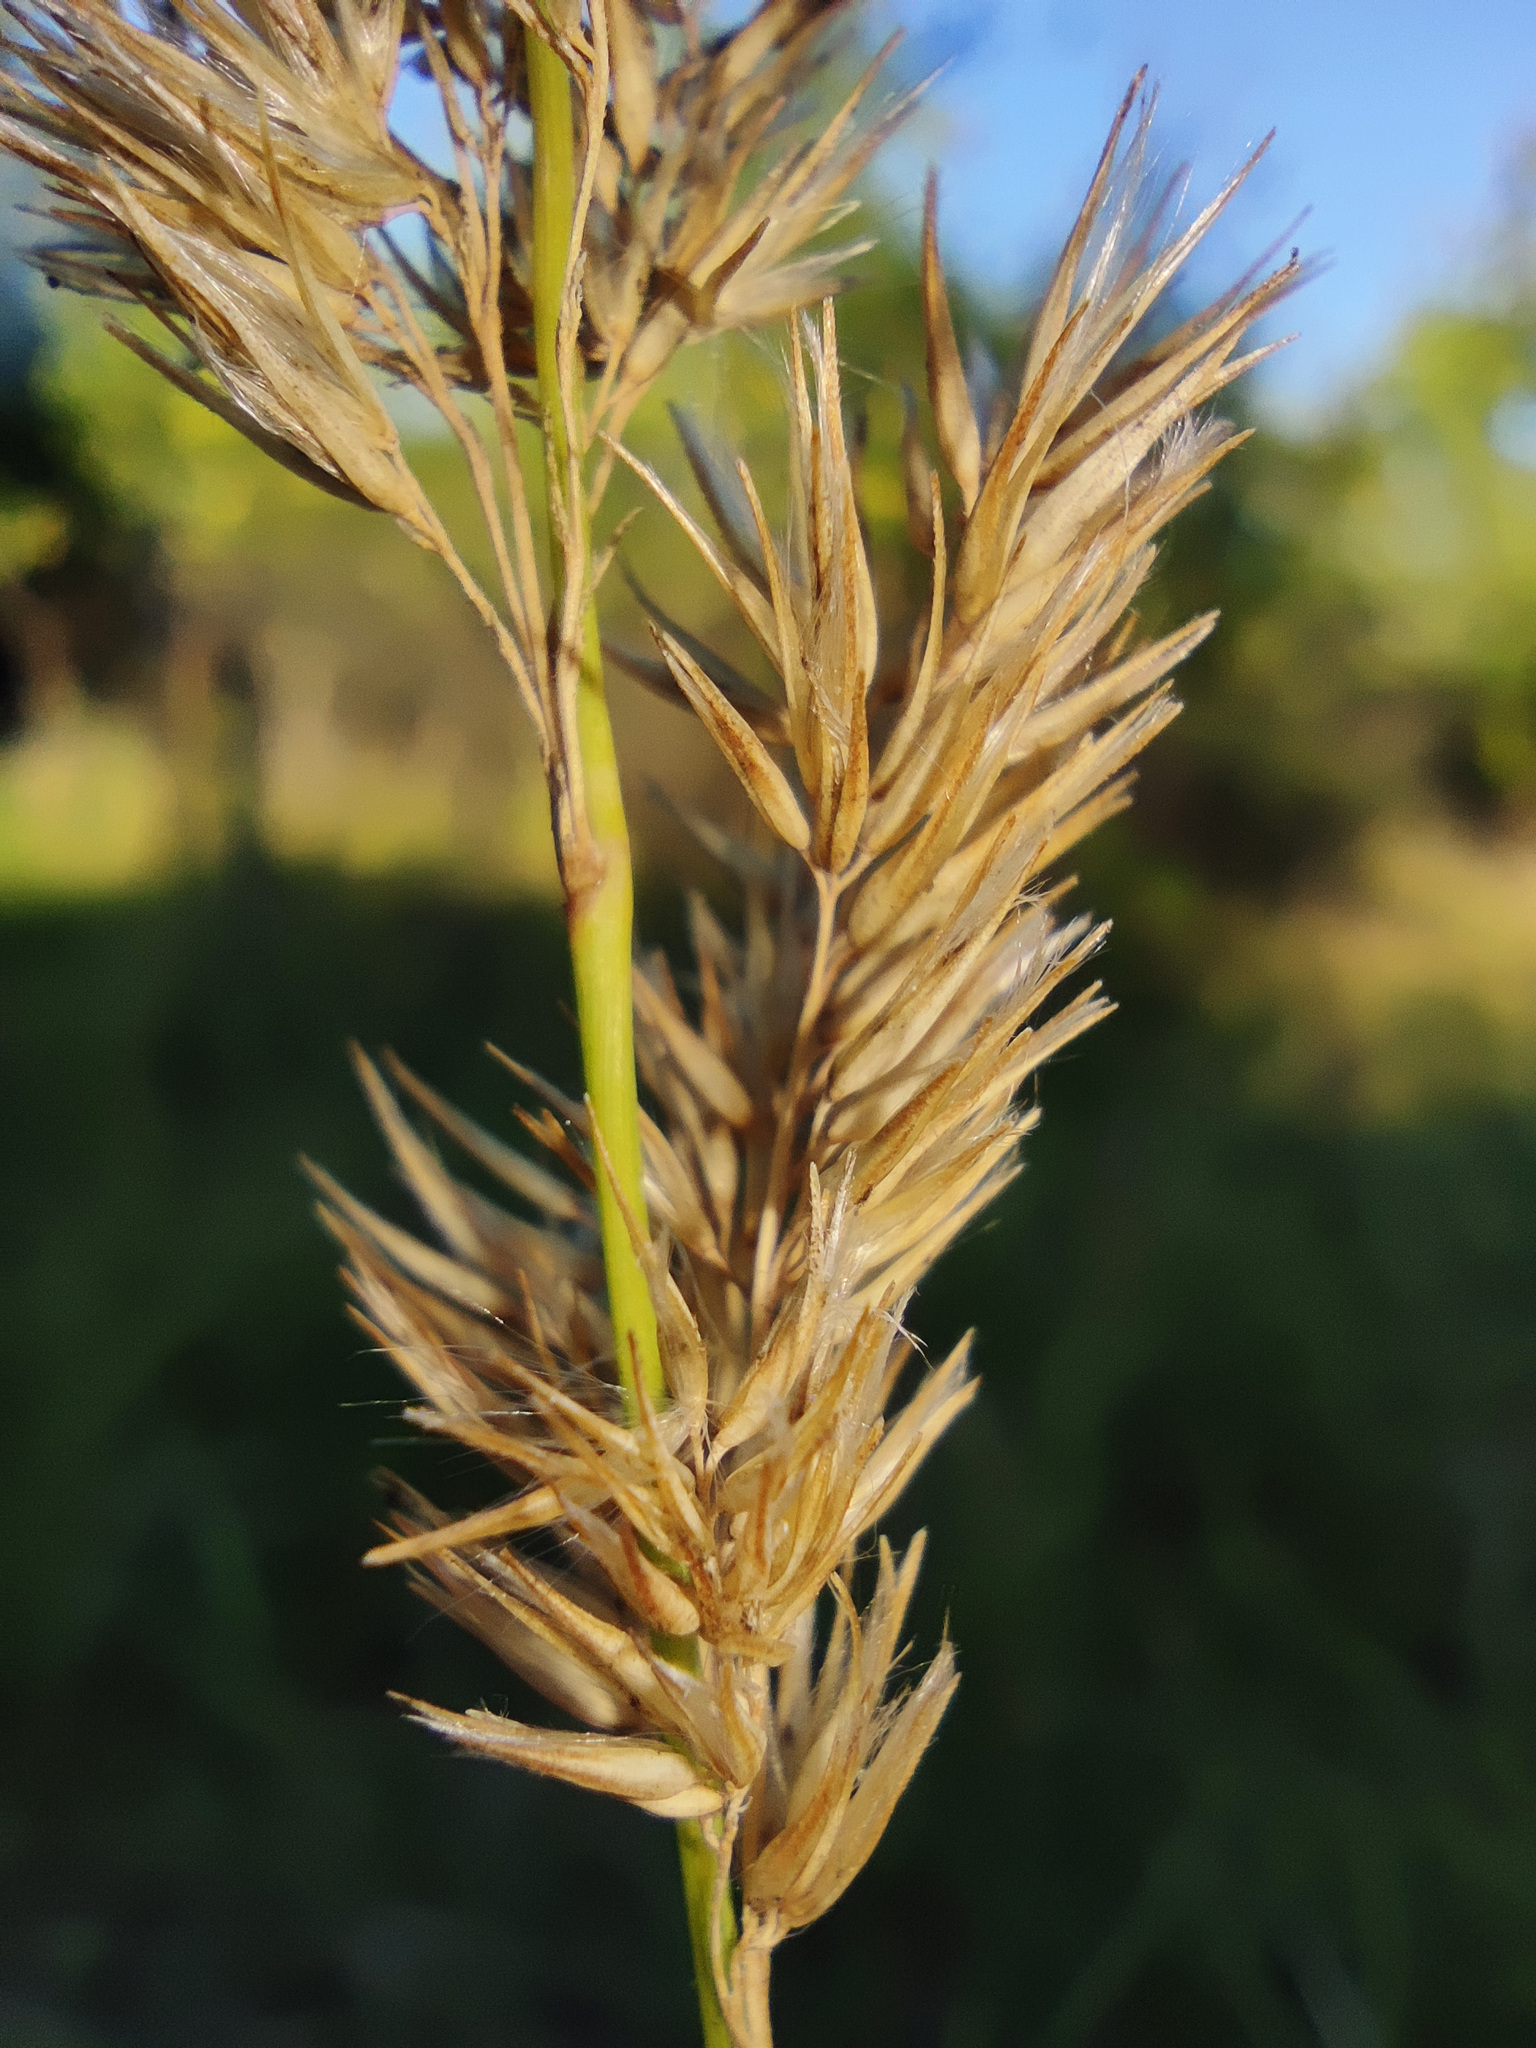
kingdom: Plantae
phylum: Tracheophyta
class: Liliopsida
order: Poales
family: Poaceae
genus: Calamagrostis
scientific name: Calamagrostis epigejos
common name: Wood small-reed
